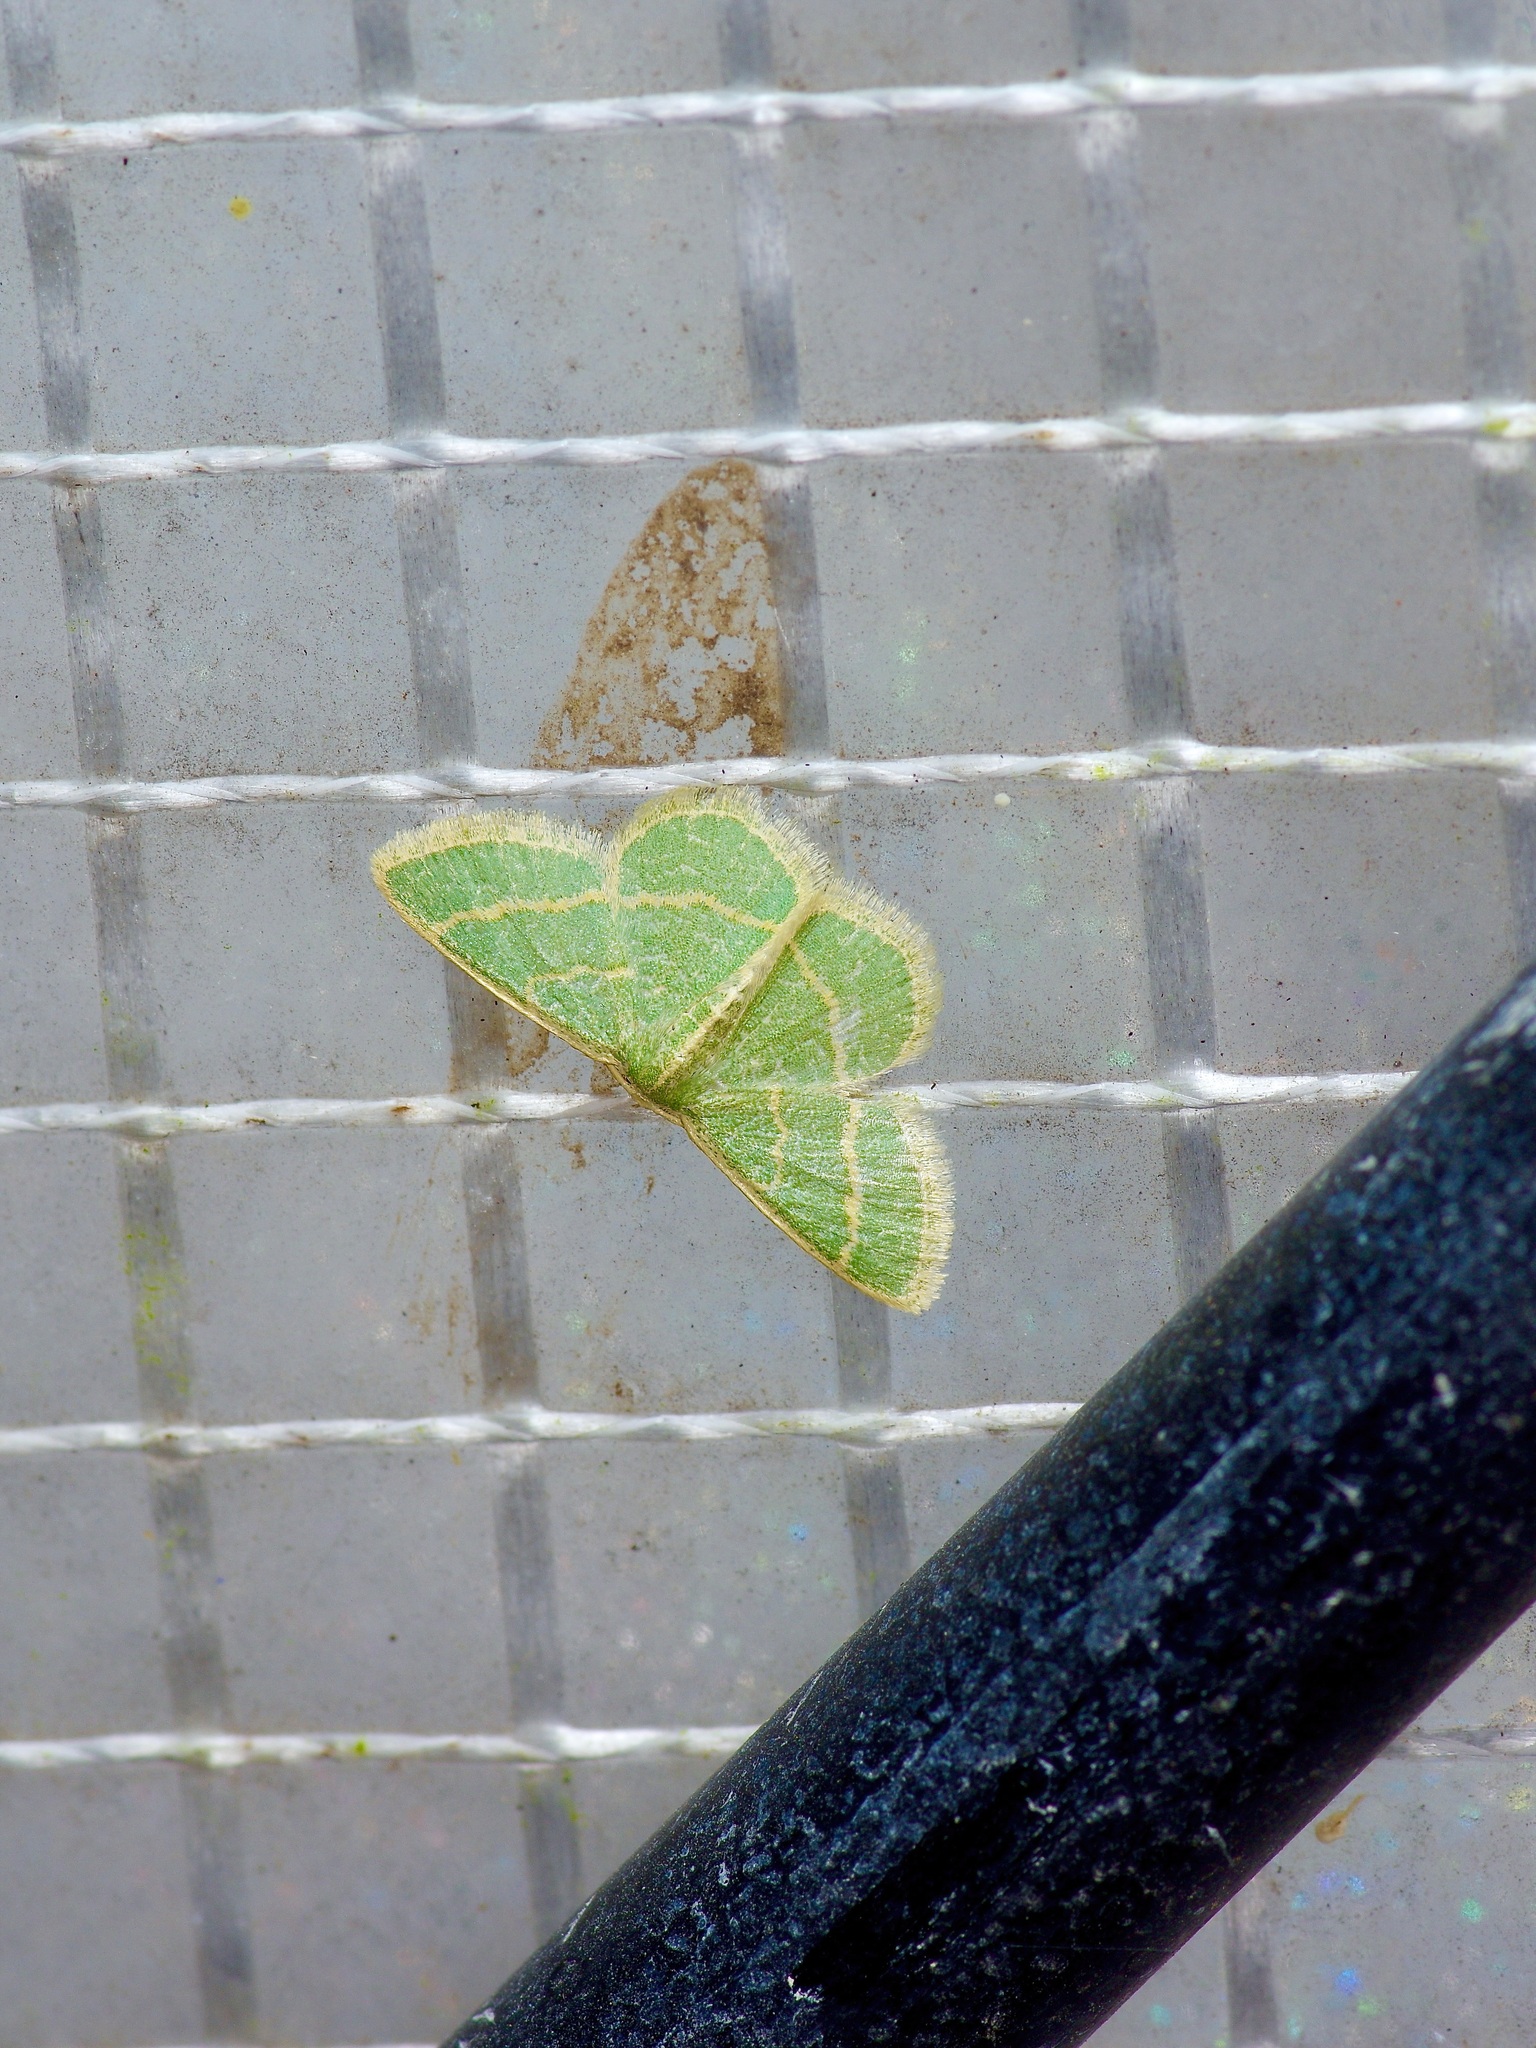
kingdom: Animalia
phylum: Arthropoda
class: Insecta
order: Lepidoptera
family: Geometridae
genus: Chlorochlamys
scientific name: Chlorochlamys chloroleucaria
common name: Blackberry looper
